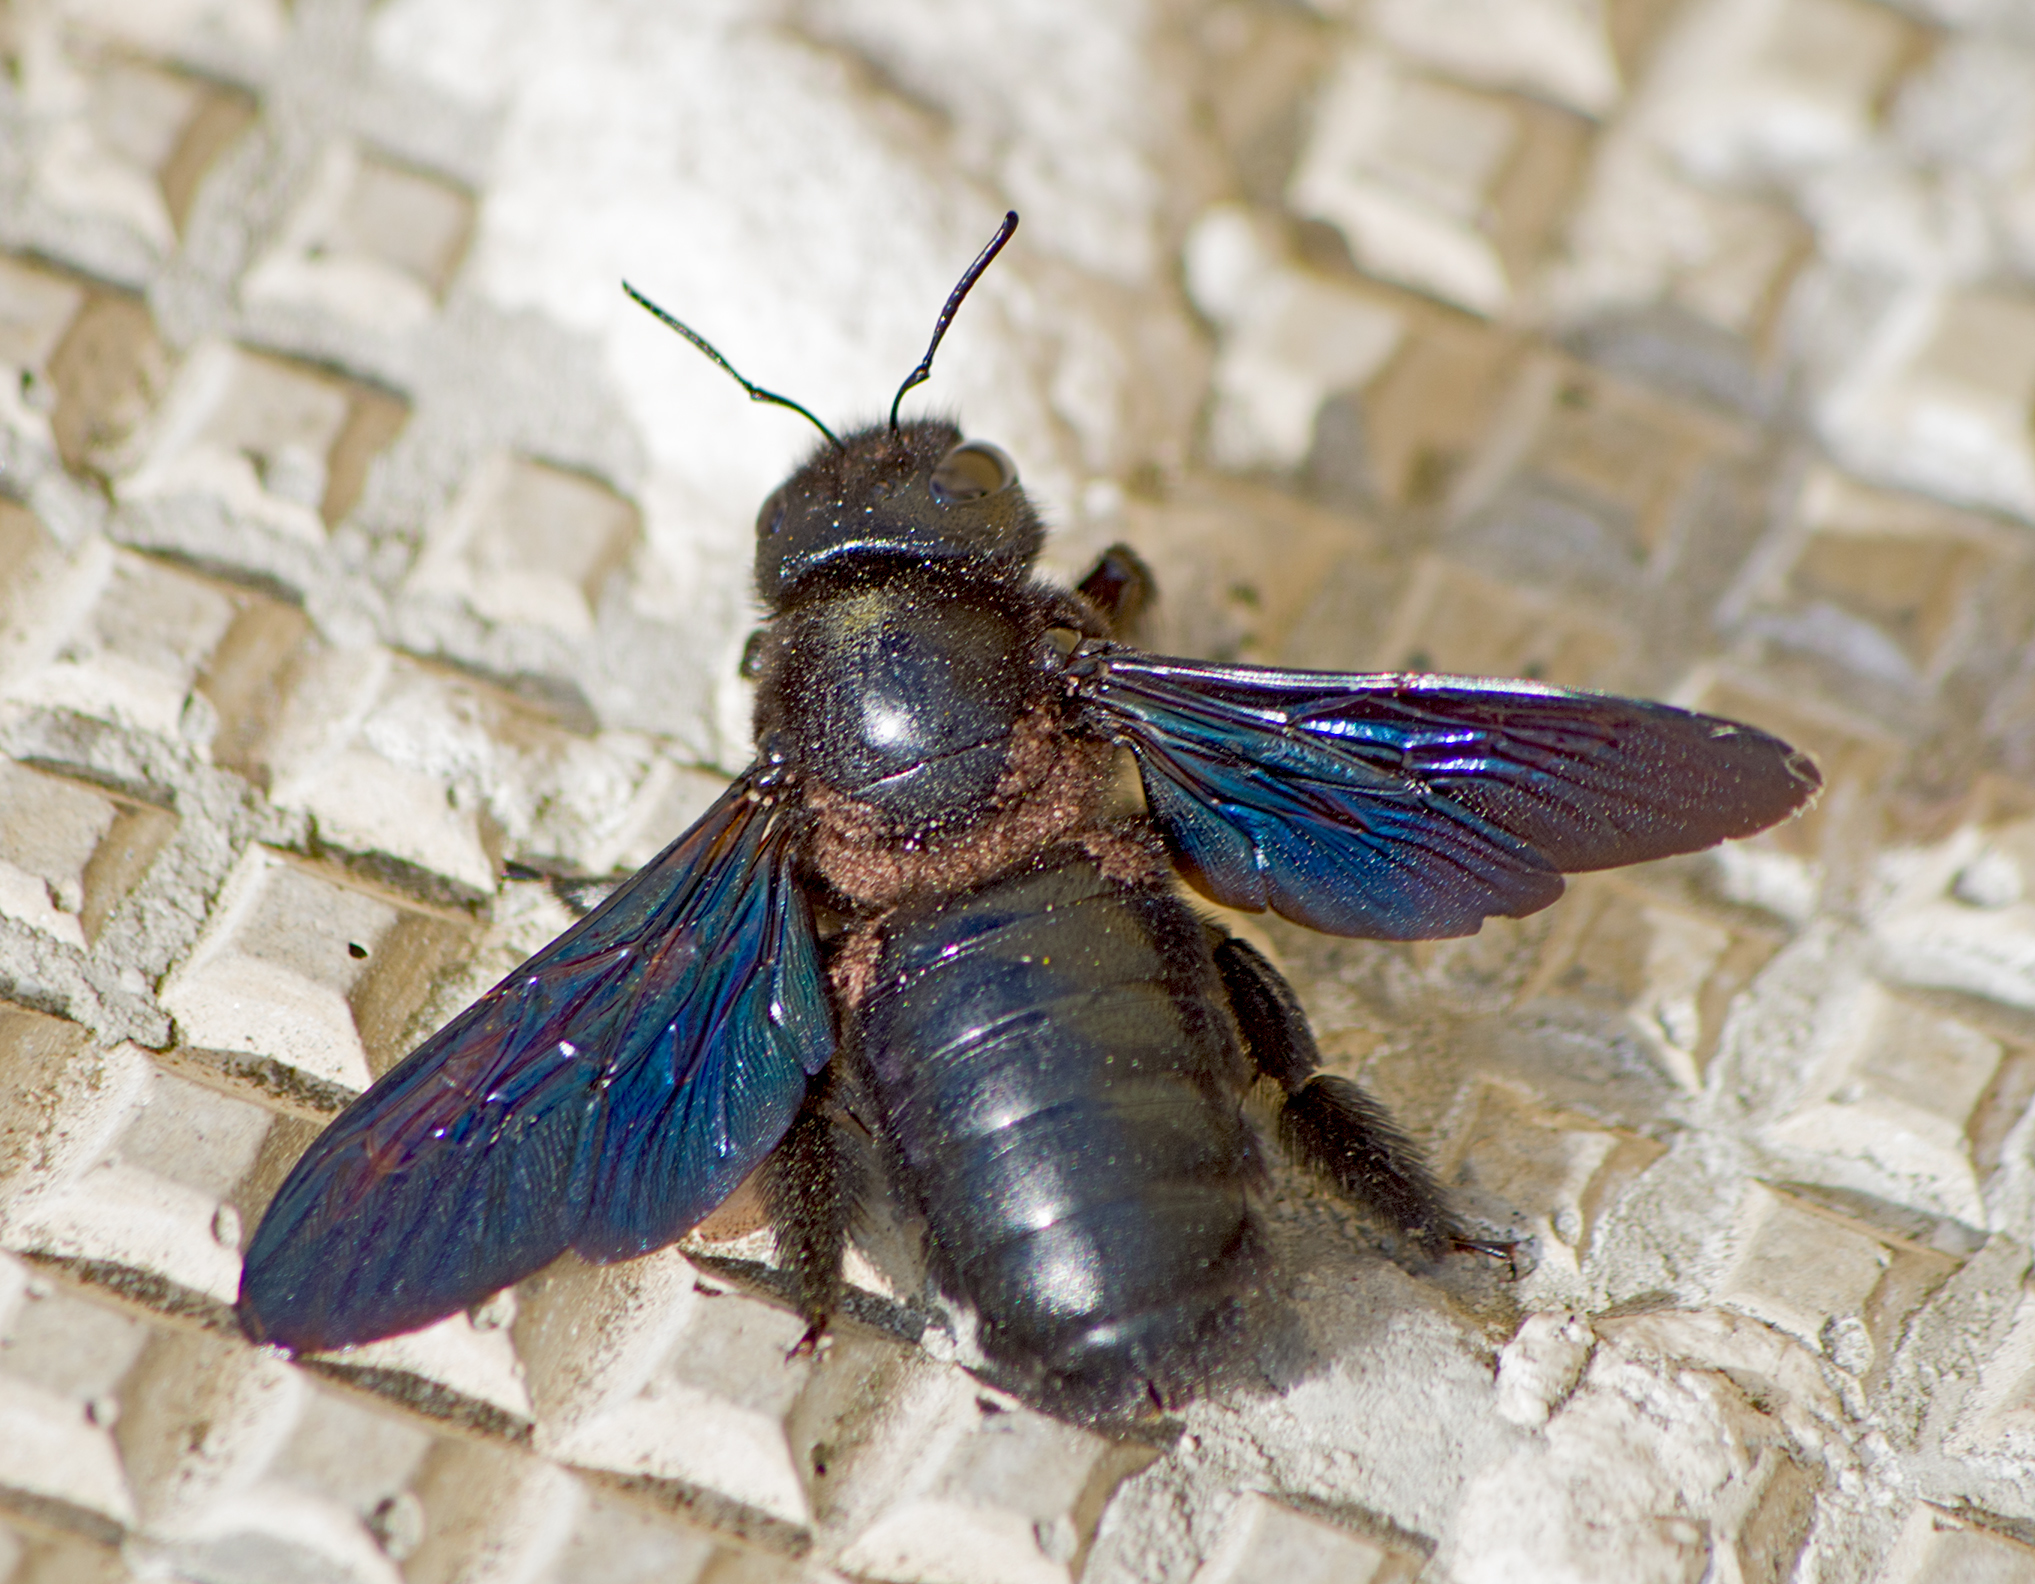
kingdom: Animalia
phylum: Arthropoda
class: Insecta
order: Hymenoptera
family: Apidae
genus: Xylocopa
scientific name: Xylocopa violacea
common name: Violet carpenter bee
